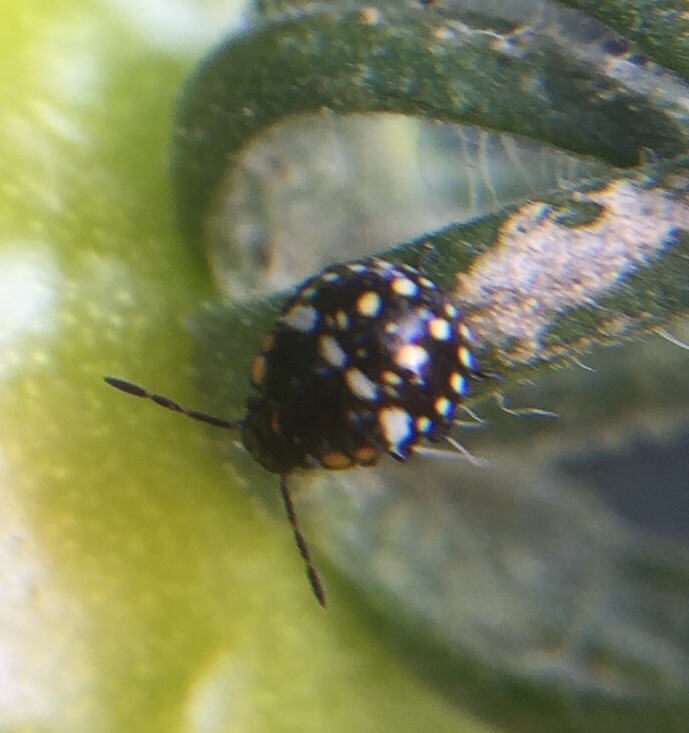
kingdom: Animalia
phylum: Arthropoda
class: Insecta
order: Hemiptera
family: Pentatomidae
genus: Nezara
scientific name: Nezara viridula
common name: Southern green stink bug
